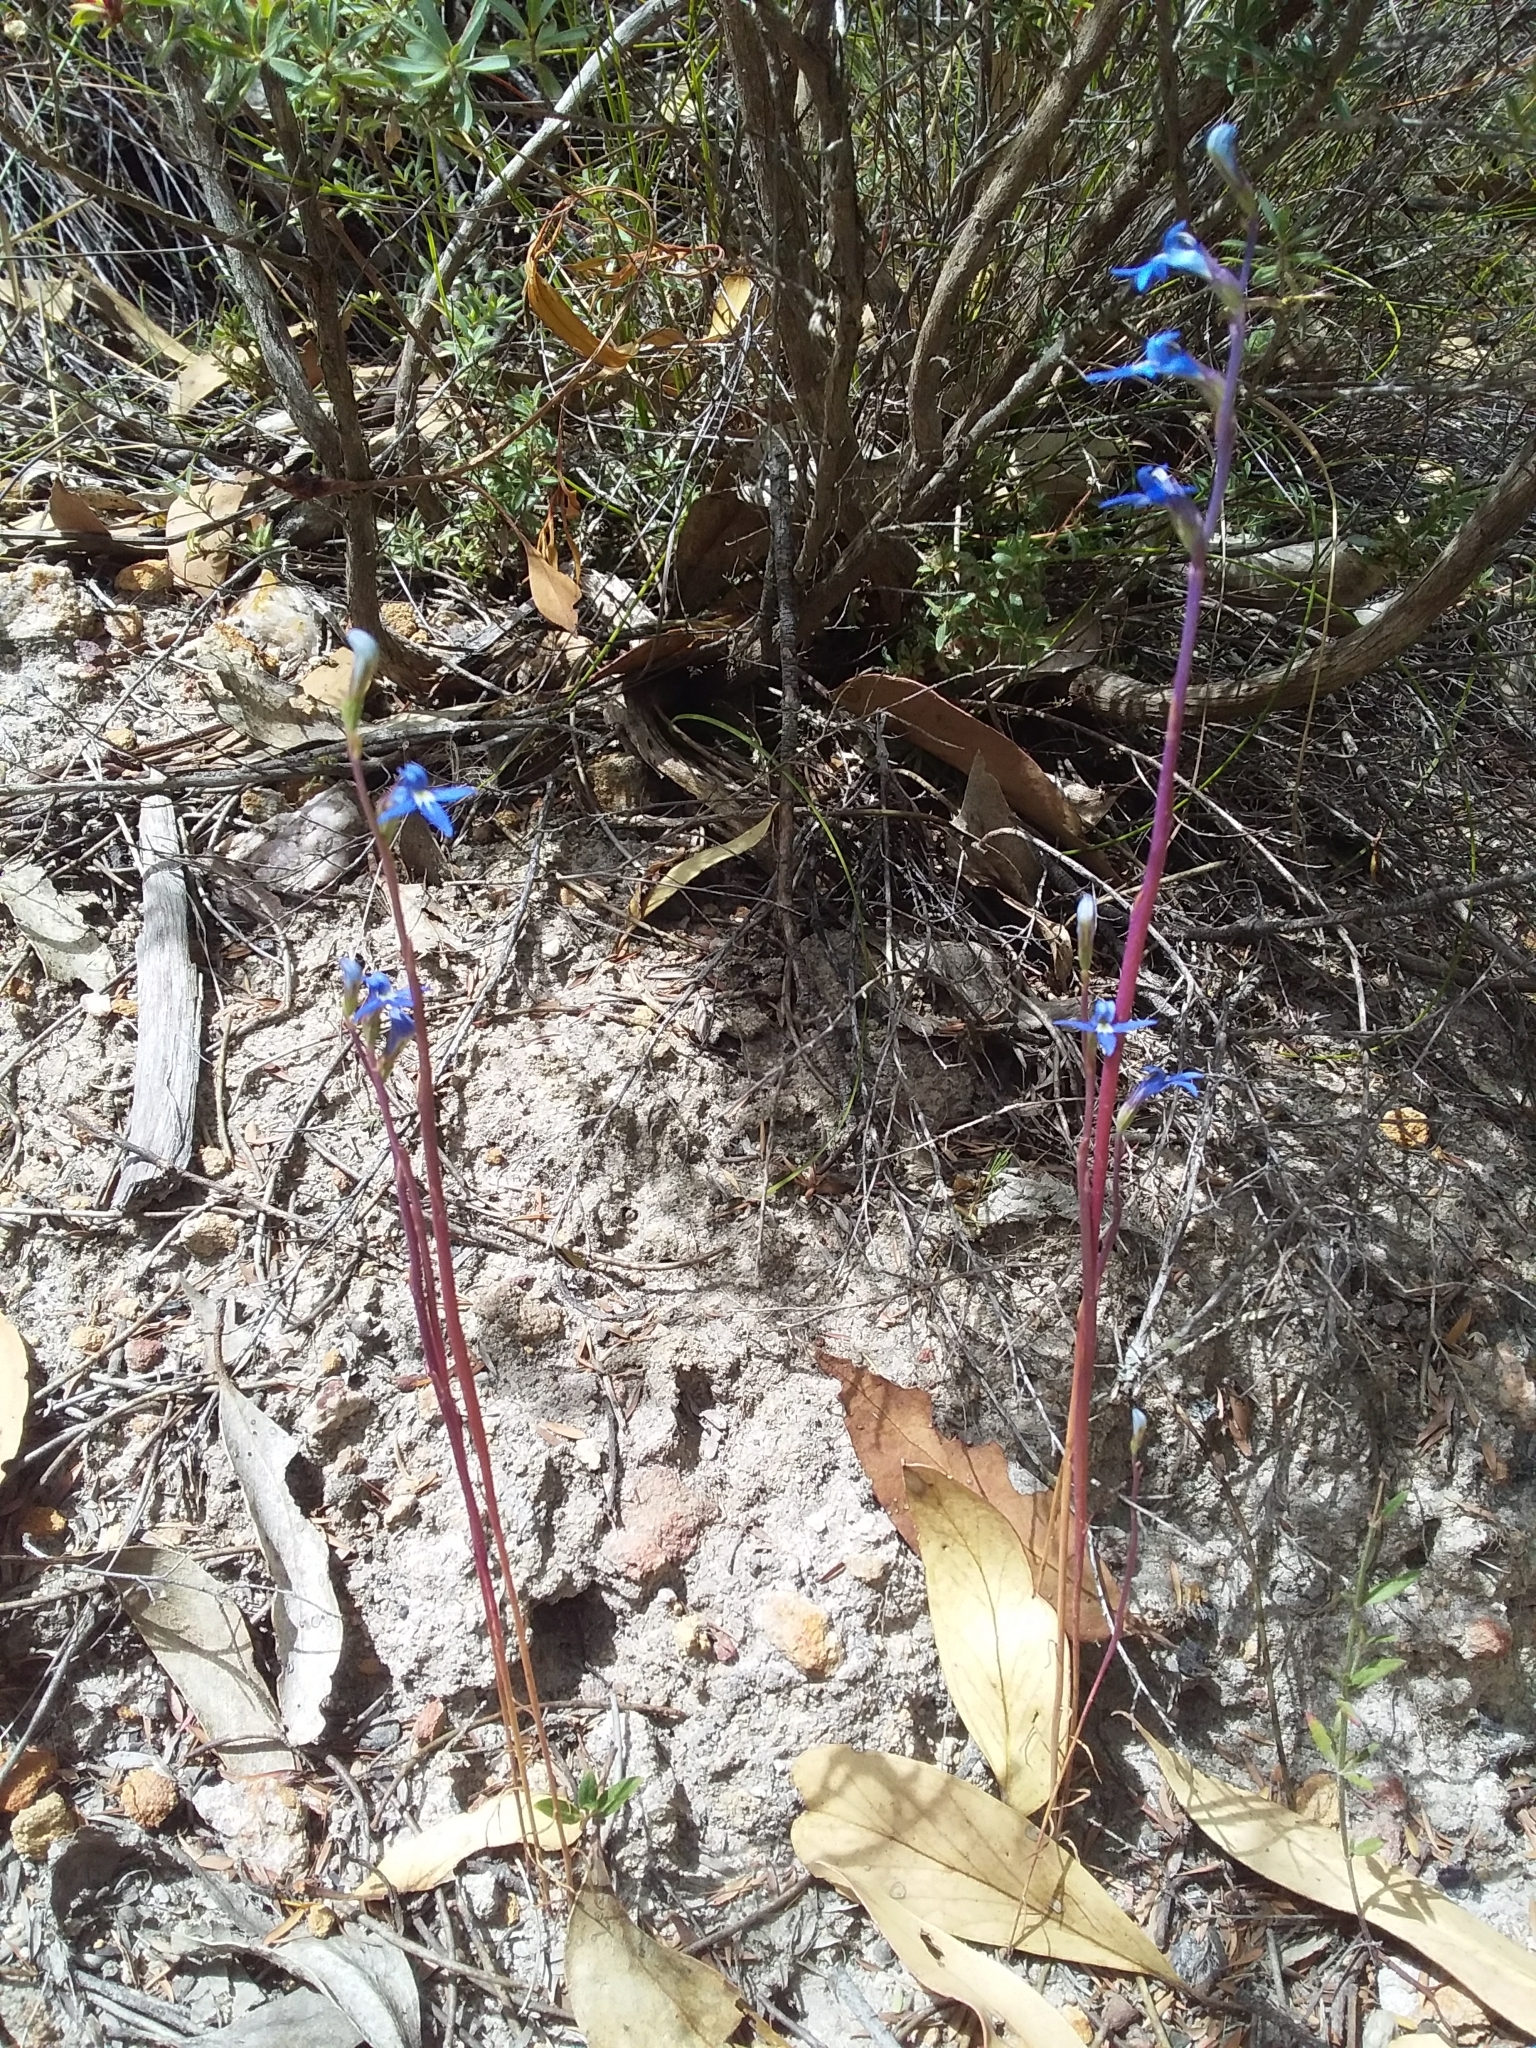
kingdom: Plantae
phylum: Tracheophyta
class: Magnoliopsida
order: Asterales
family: Campanulaceae
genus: Lobelia
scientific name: Lobelia gibbosa
